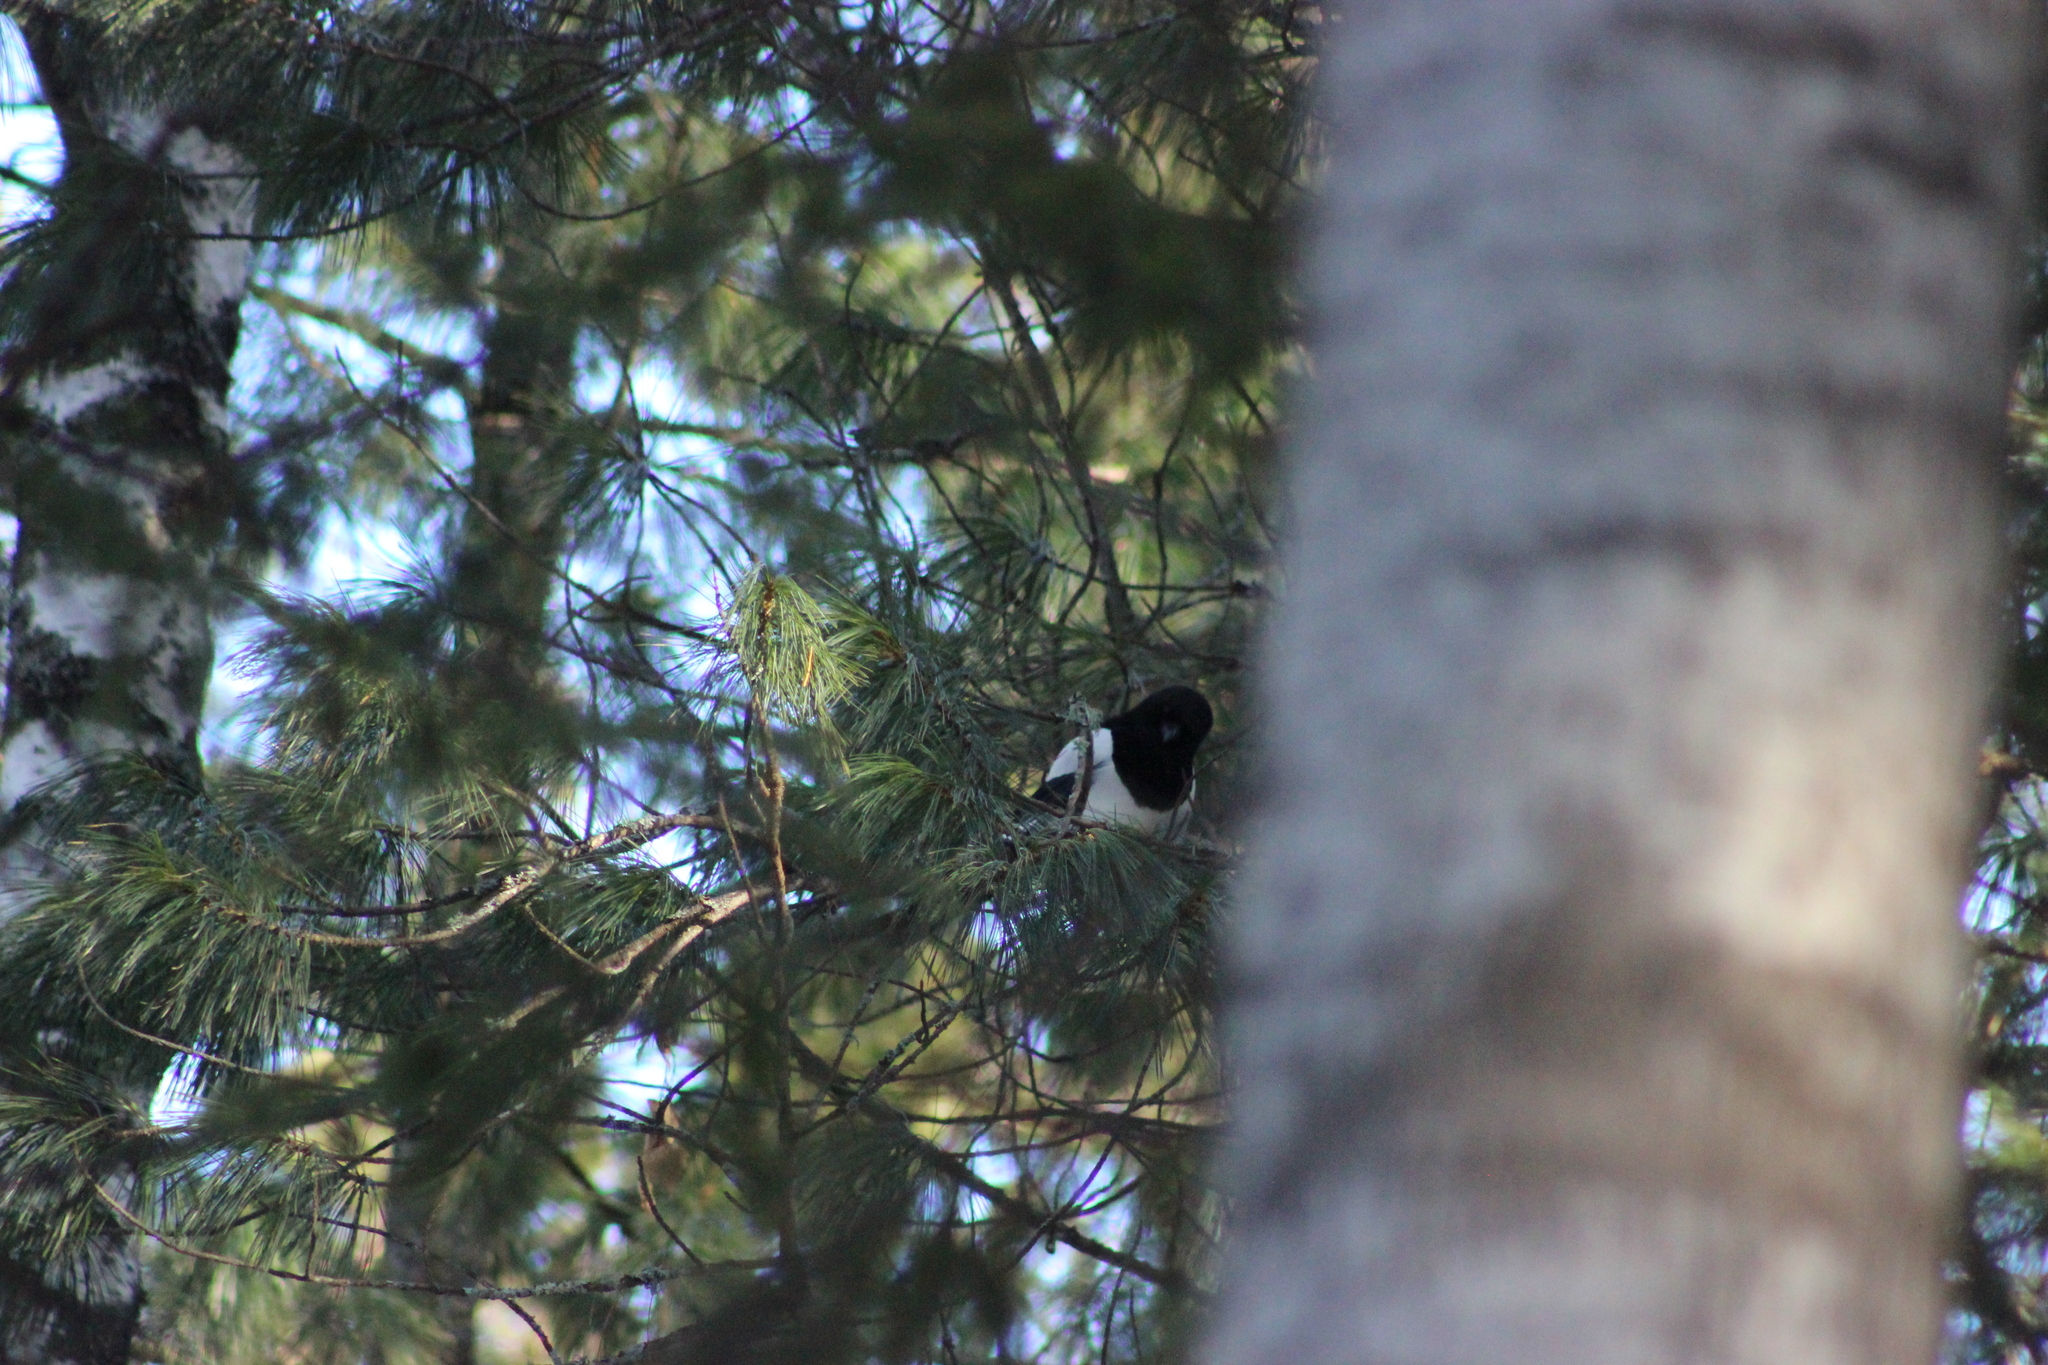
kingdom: Animalia
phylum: Chordata
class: Aves
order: Passeriformes
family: Corvidae
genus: Pica
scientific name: Pica pica
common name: Eurasian magpie
